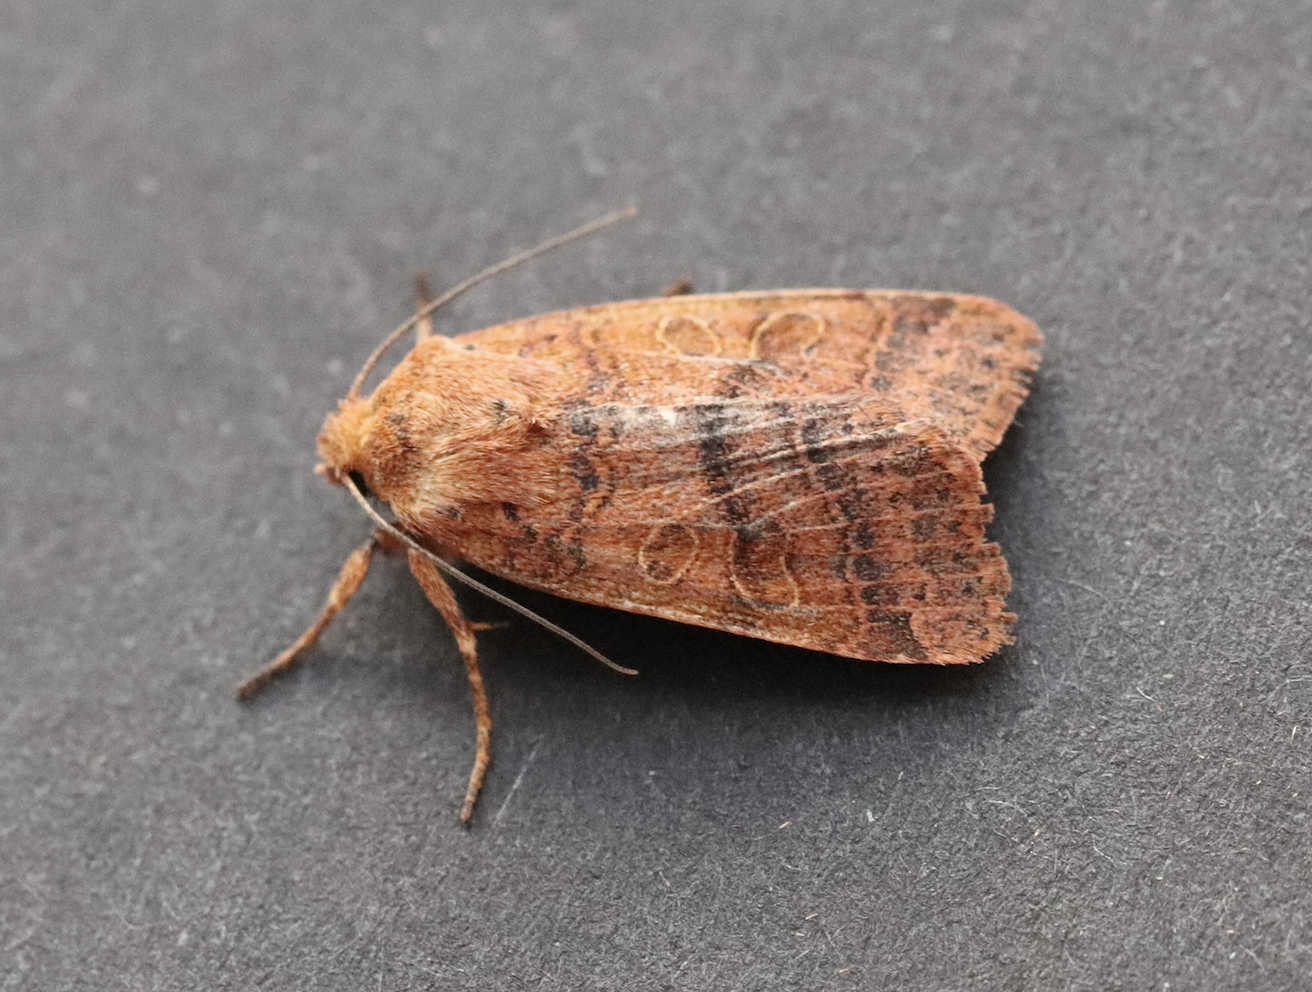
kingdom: Animalia
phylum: Arthropoda
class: Insecta
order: Lepidoptera
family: Noctuidae
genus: Agrochola
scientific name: Agrochola nitida
